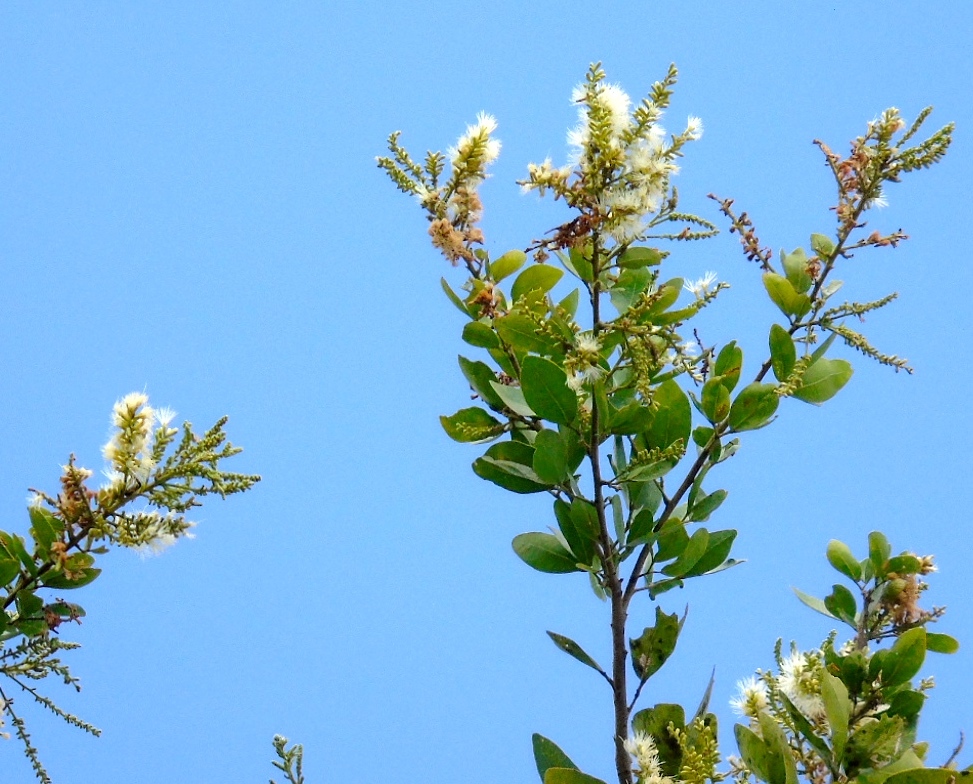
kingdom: Plantae
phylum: Tracheophyta
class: Magnoliopsida
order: Fabales
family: Fabaceae
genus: Pithecellobium
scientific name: Pithecellobium lanceolatum
